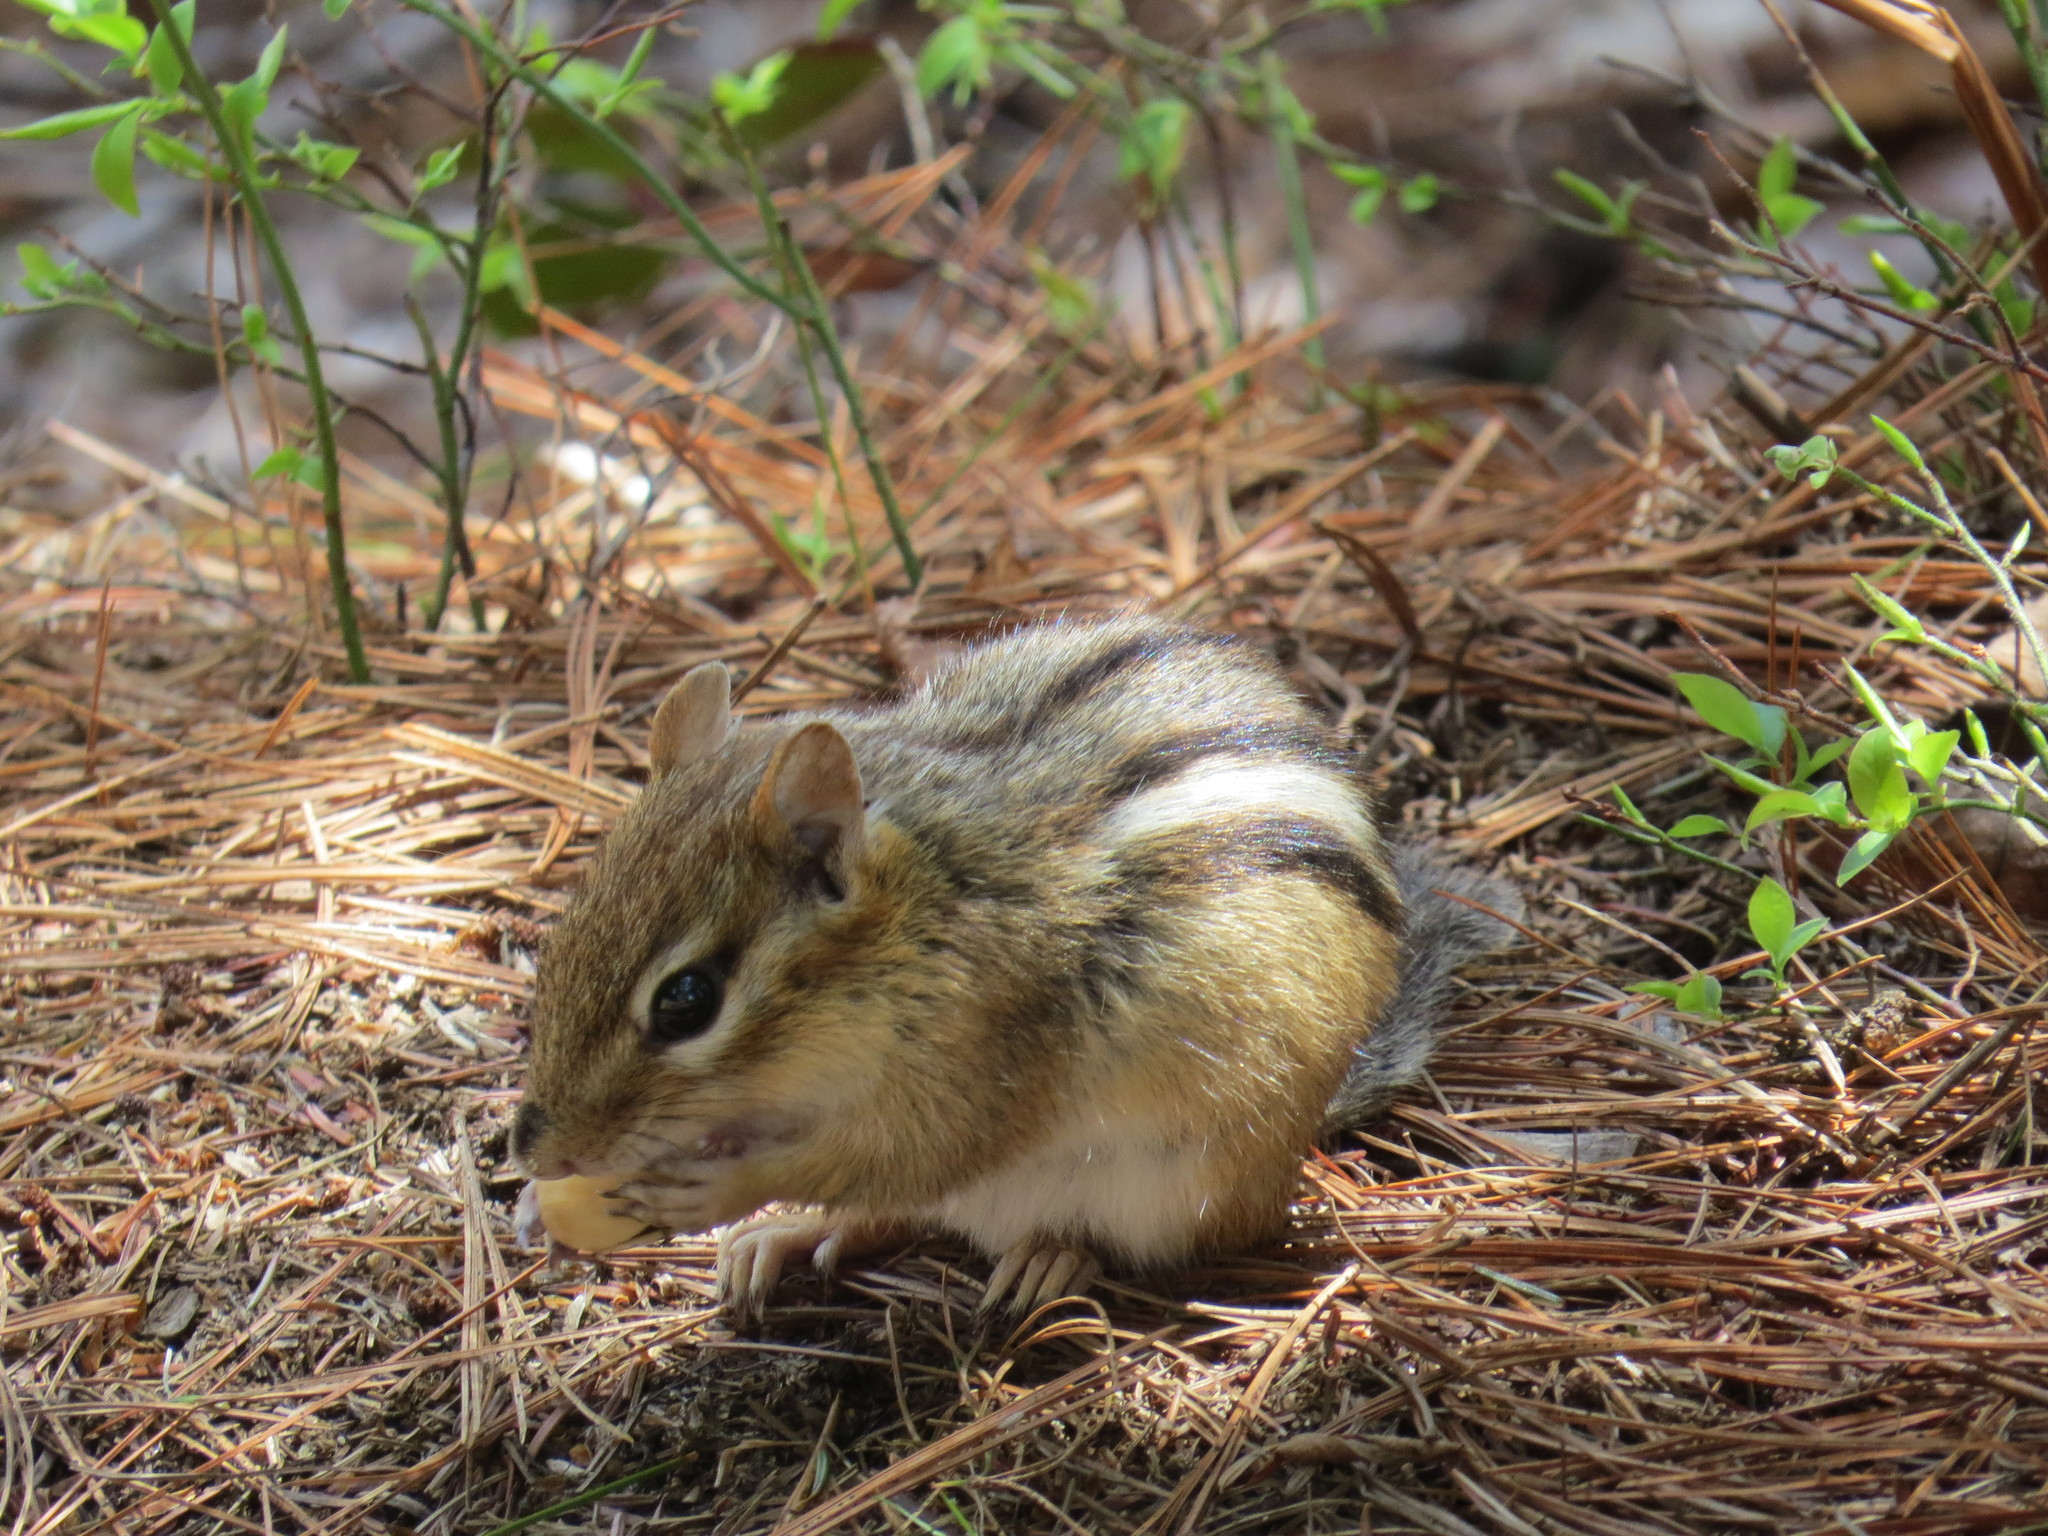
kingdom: Animalia
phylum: Chordata
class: Mammalia
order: Rodentia
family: Sciuridae
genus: Tamias
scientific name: Tamias striatus
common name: Eastern chipmunk
